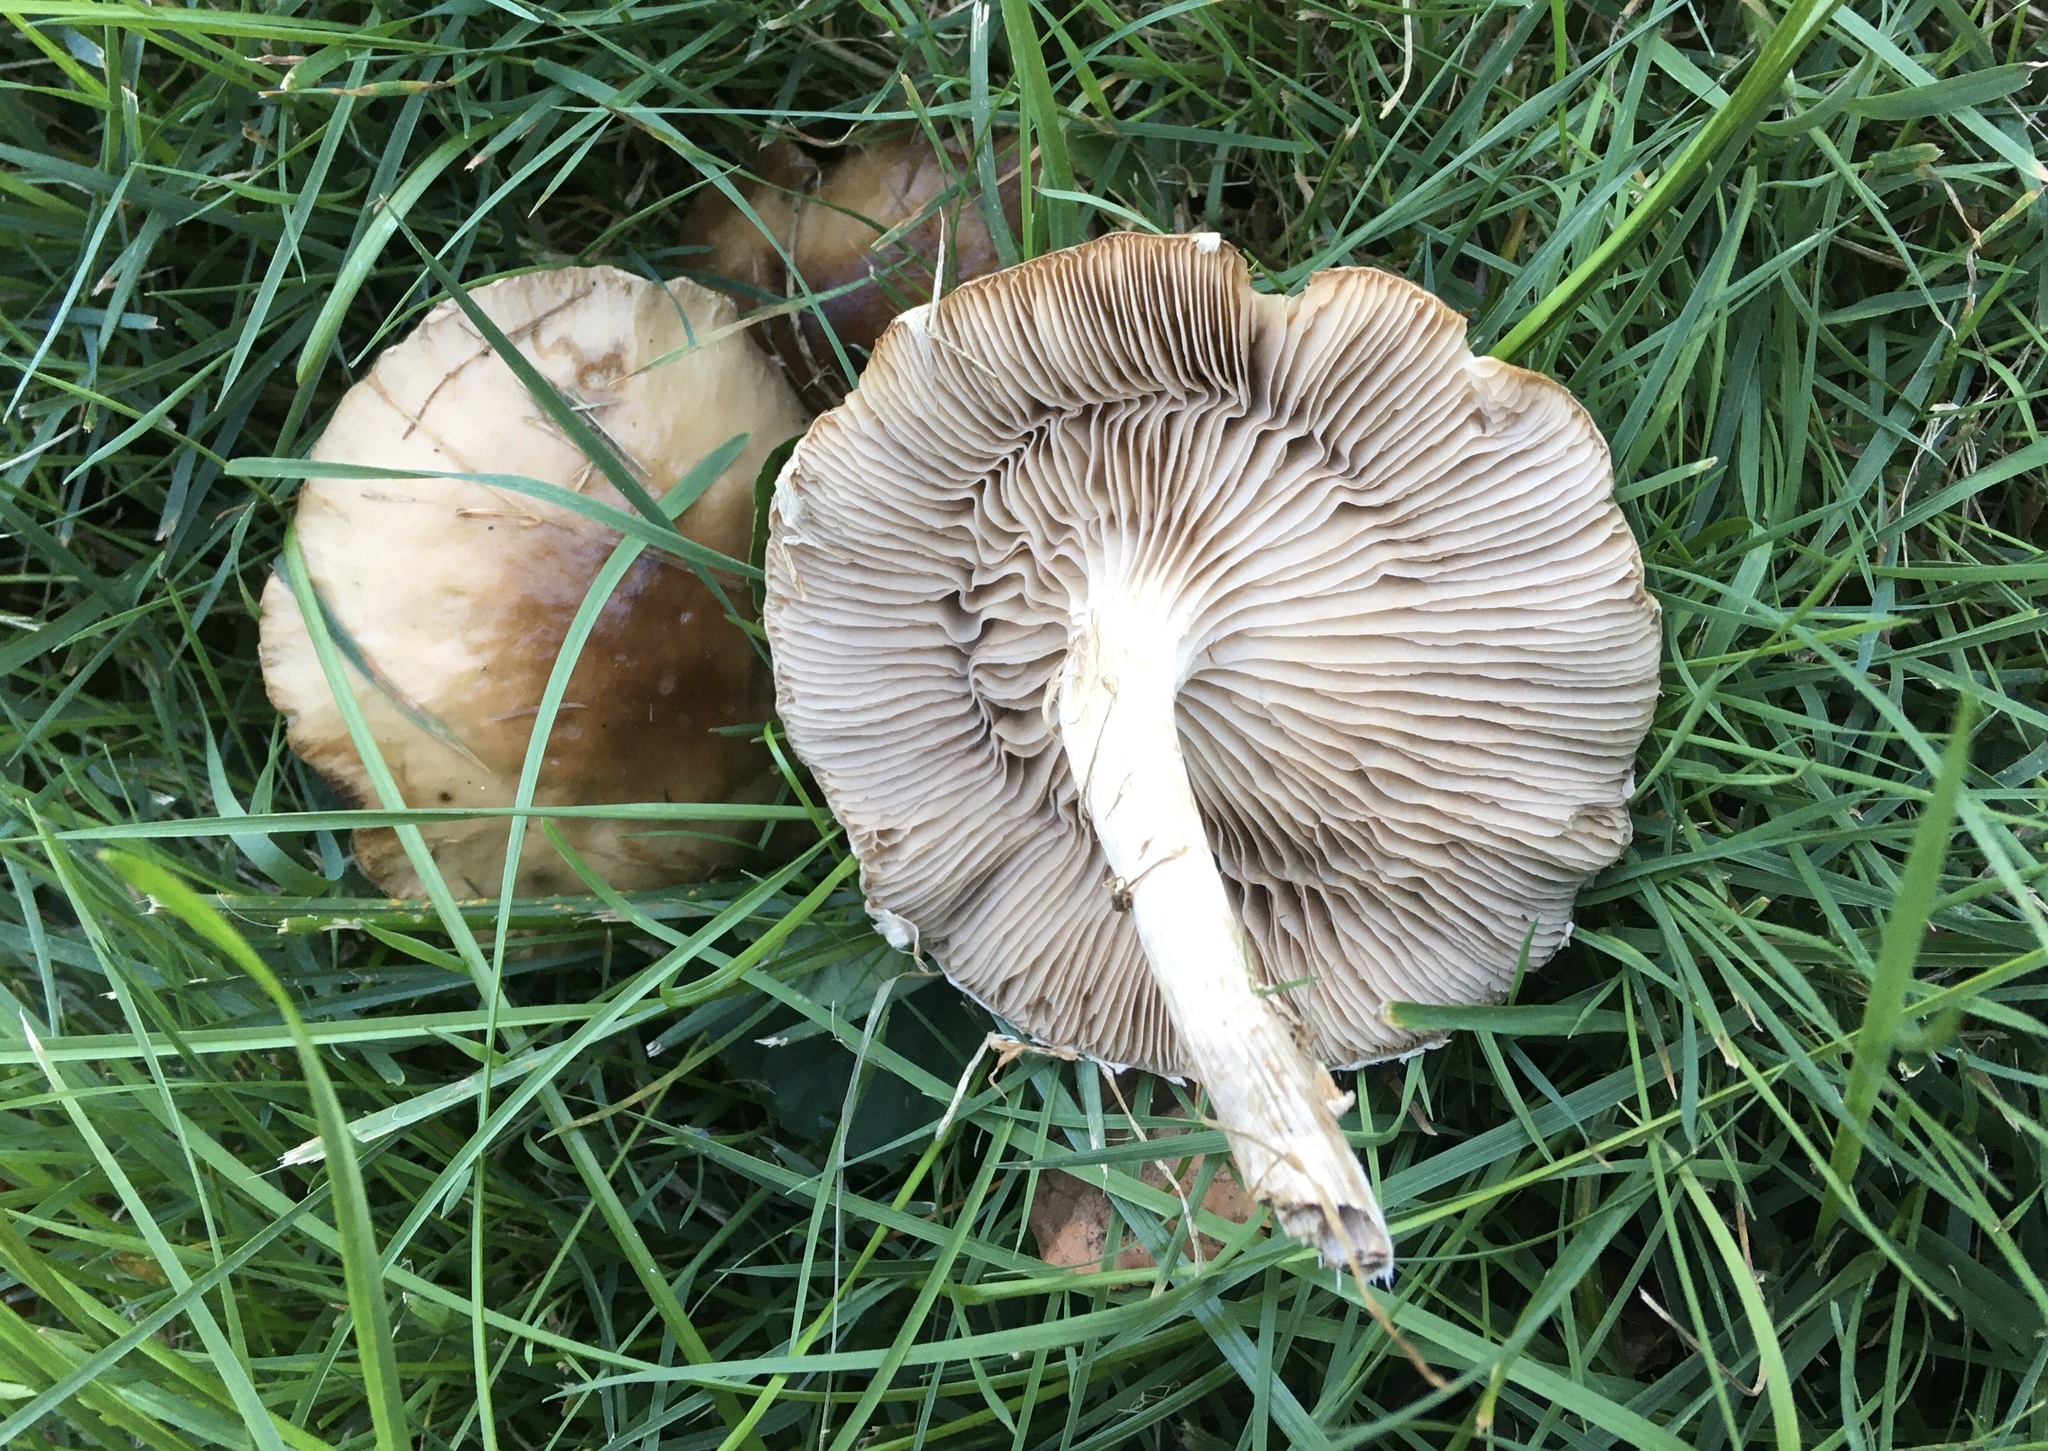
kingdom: Fungi
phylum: Basidiomycota
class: Agaricomycetes
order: Agaricales
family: Tubariaceae
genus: Cyclocybe
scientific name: Cyclocybe erebia
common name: Dark fieldcap
